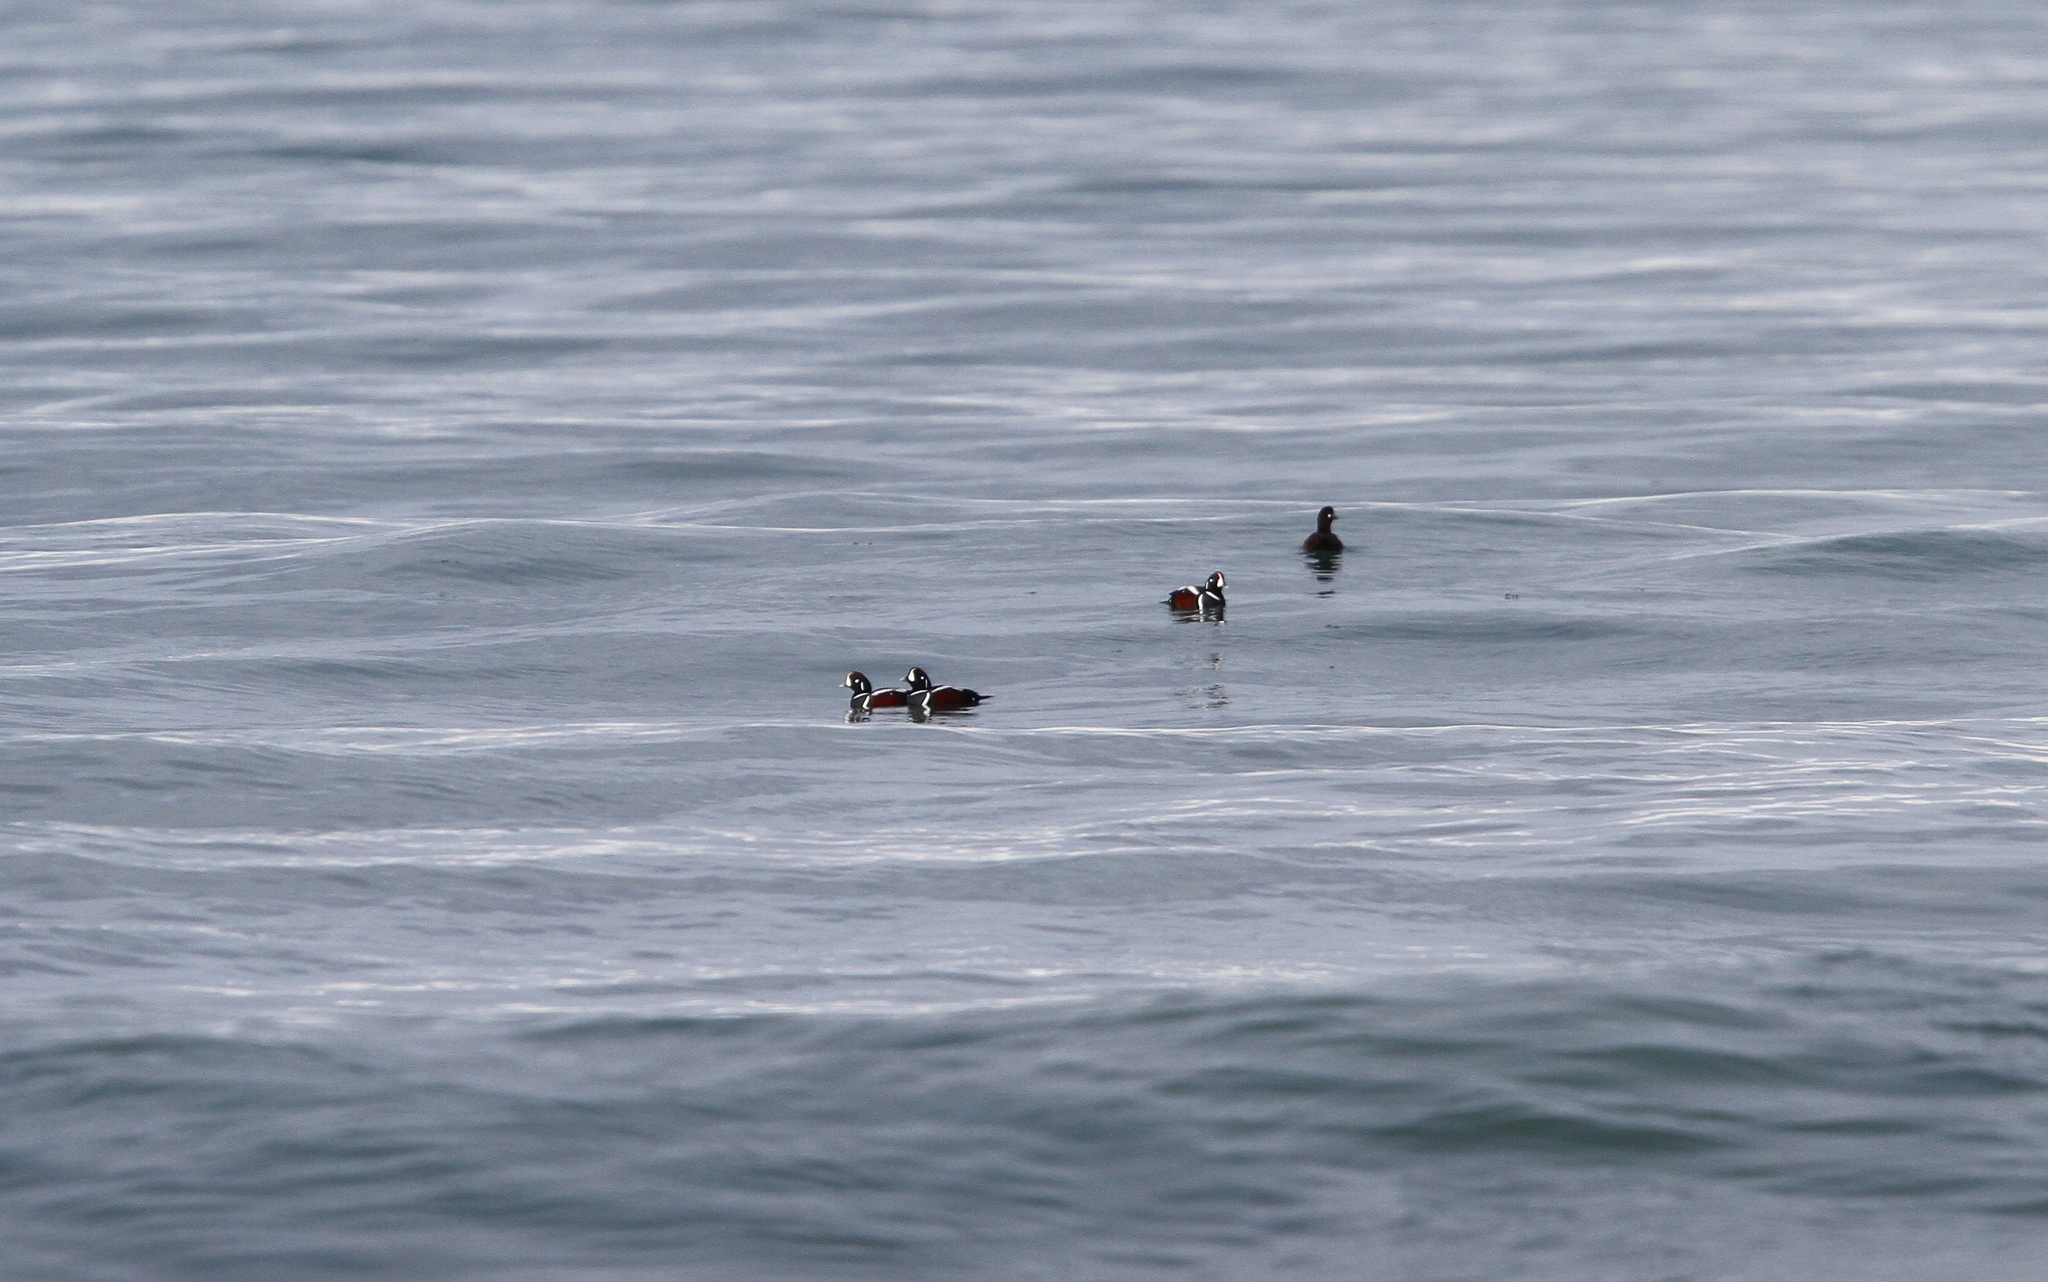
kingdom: Animalia
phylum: Chordata
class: Aves
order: Anseriformes
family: Anatidae
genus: Histrionicus
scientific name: Histrionicus histrionicus
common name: Harlequin duck
